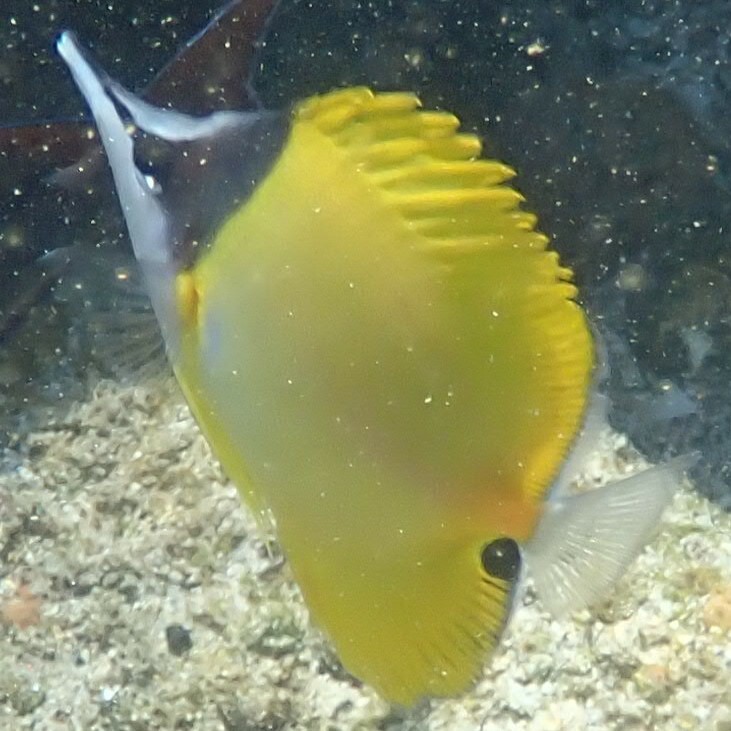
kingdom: Animalia
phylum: Chordata
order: Perciformes
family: Chaetodontidae
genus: Forcipiger
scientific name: Forcipiger flavissimus
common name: Forcepsfish
